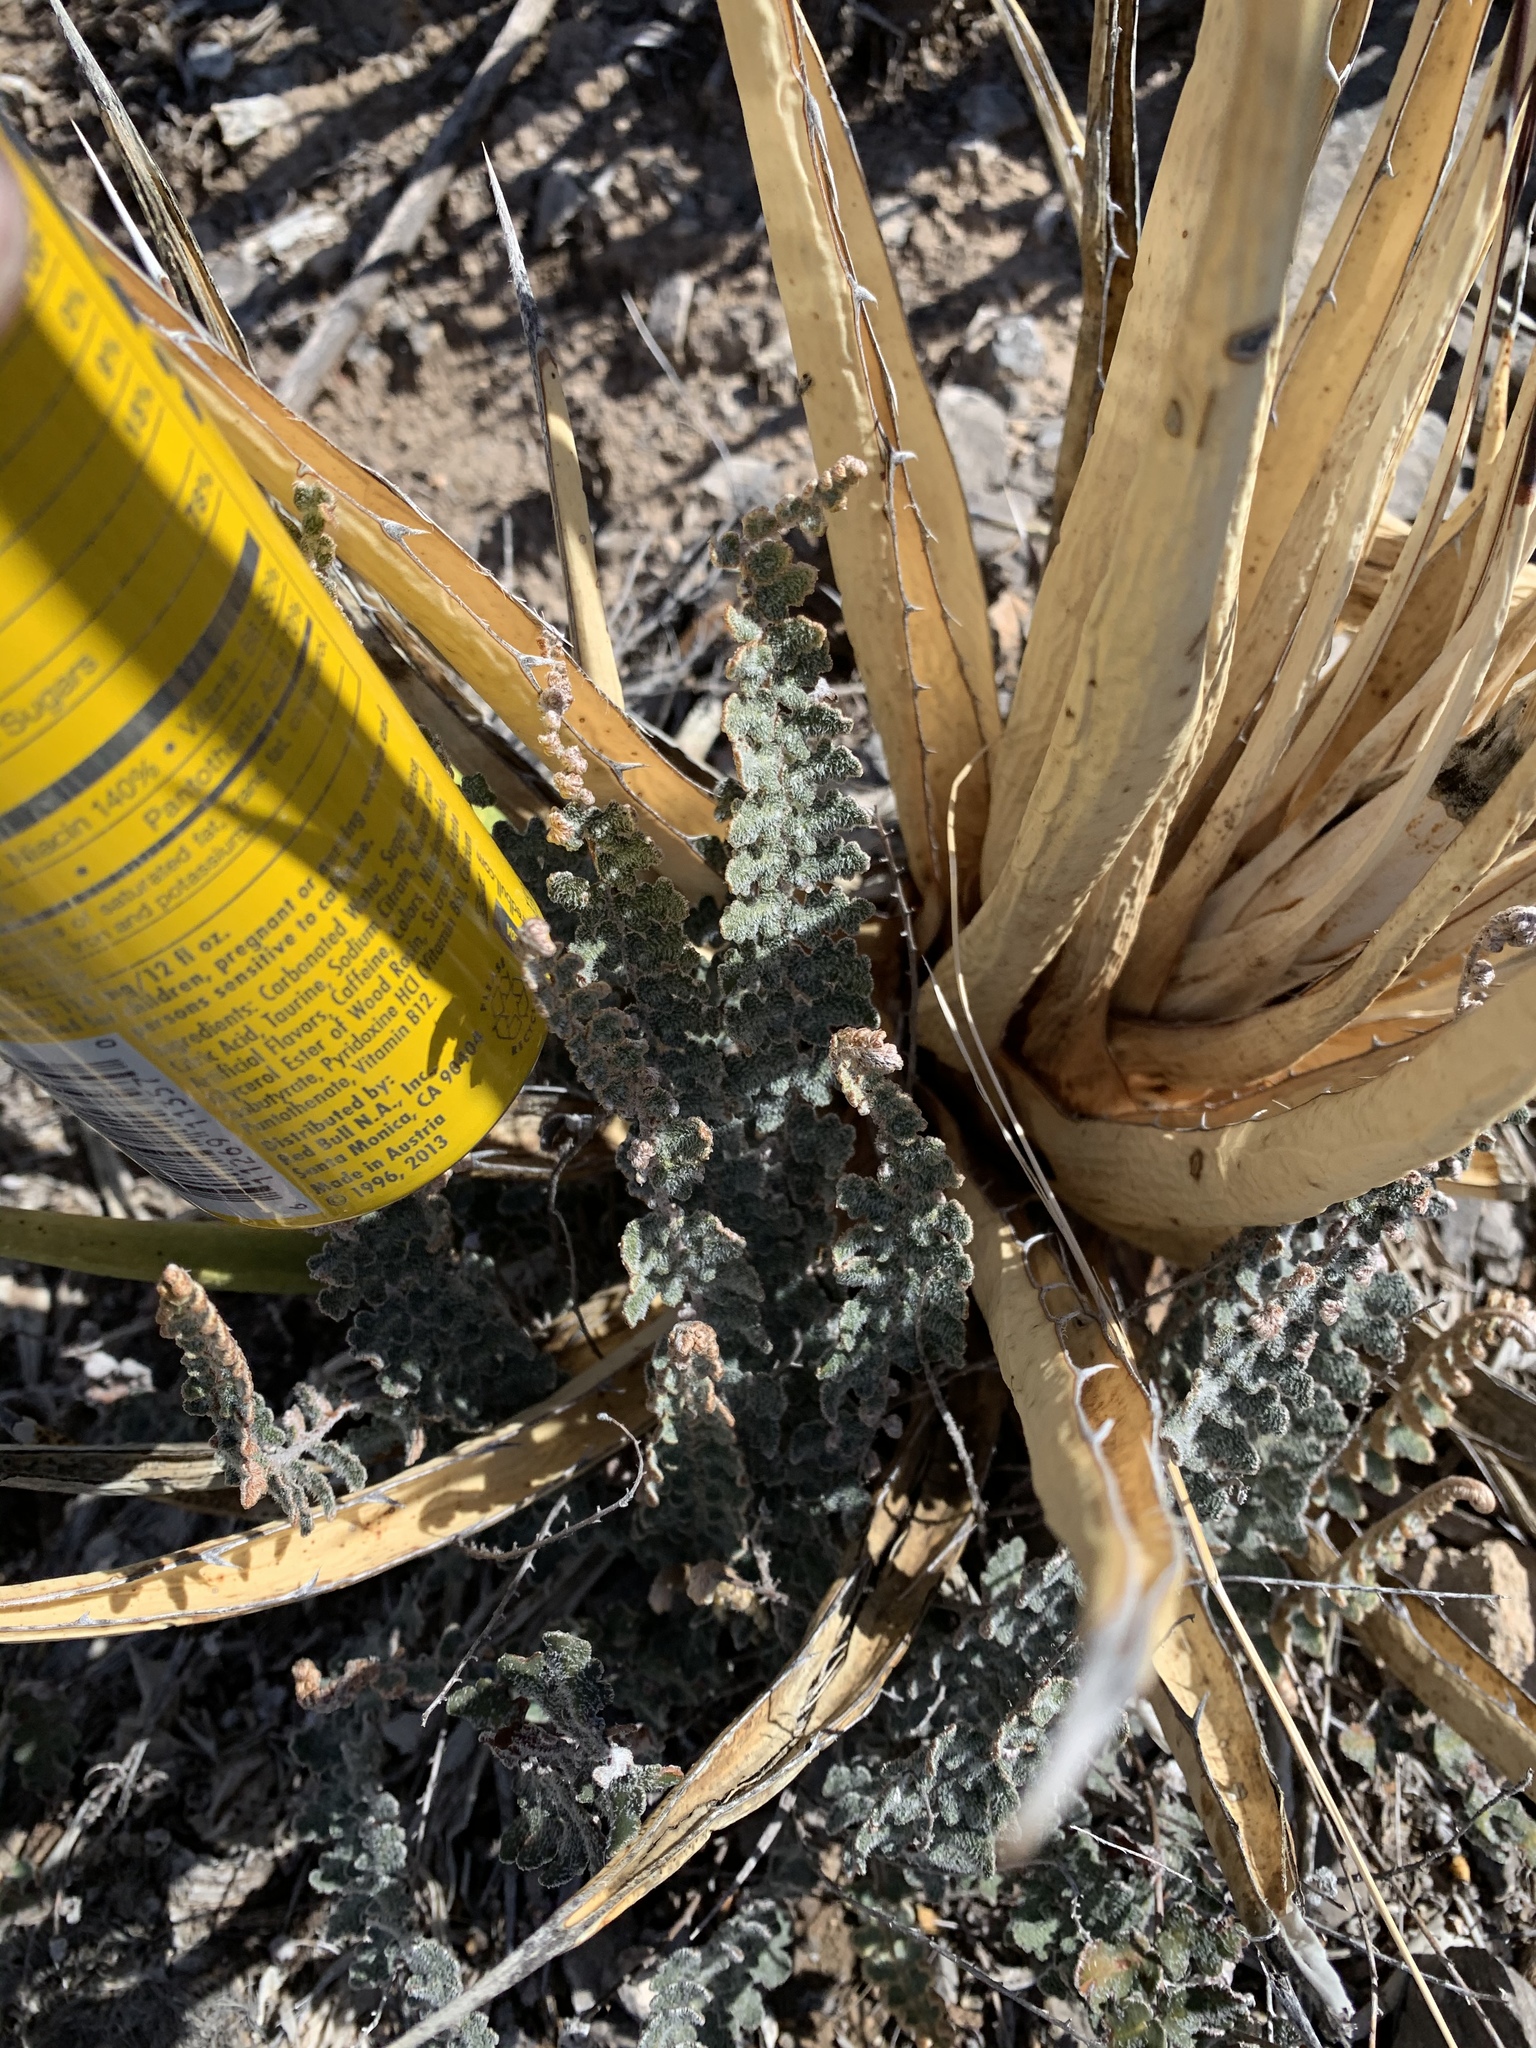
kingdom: Plantae
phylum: Tracheophyta
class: Polypodiopsida
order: Polypodiales
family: Pteridaceae
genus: Astrolepis
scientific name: Astrolepis integerrima
